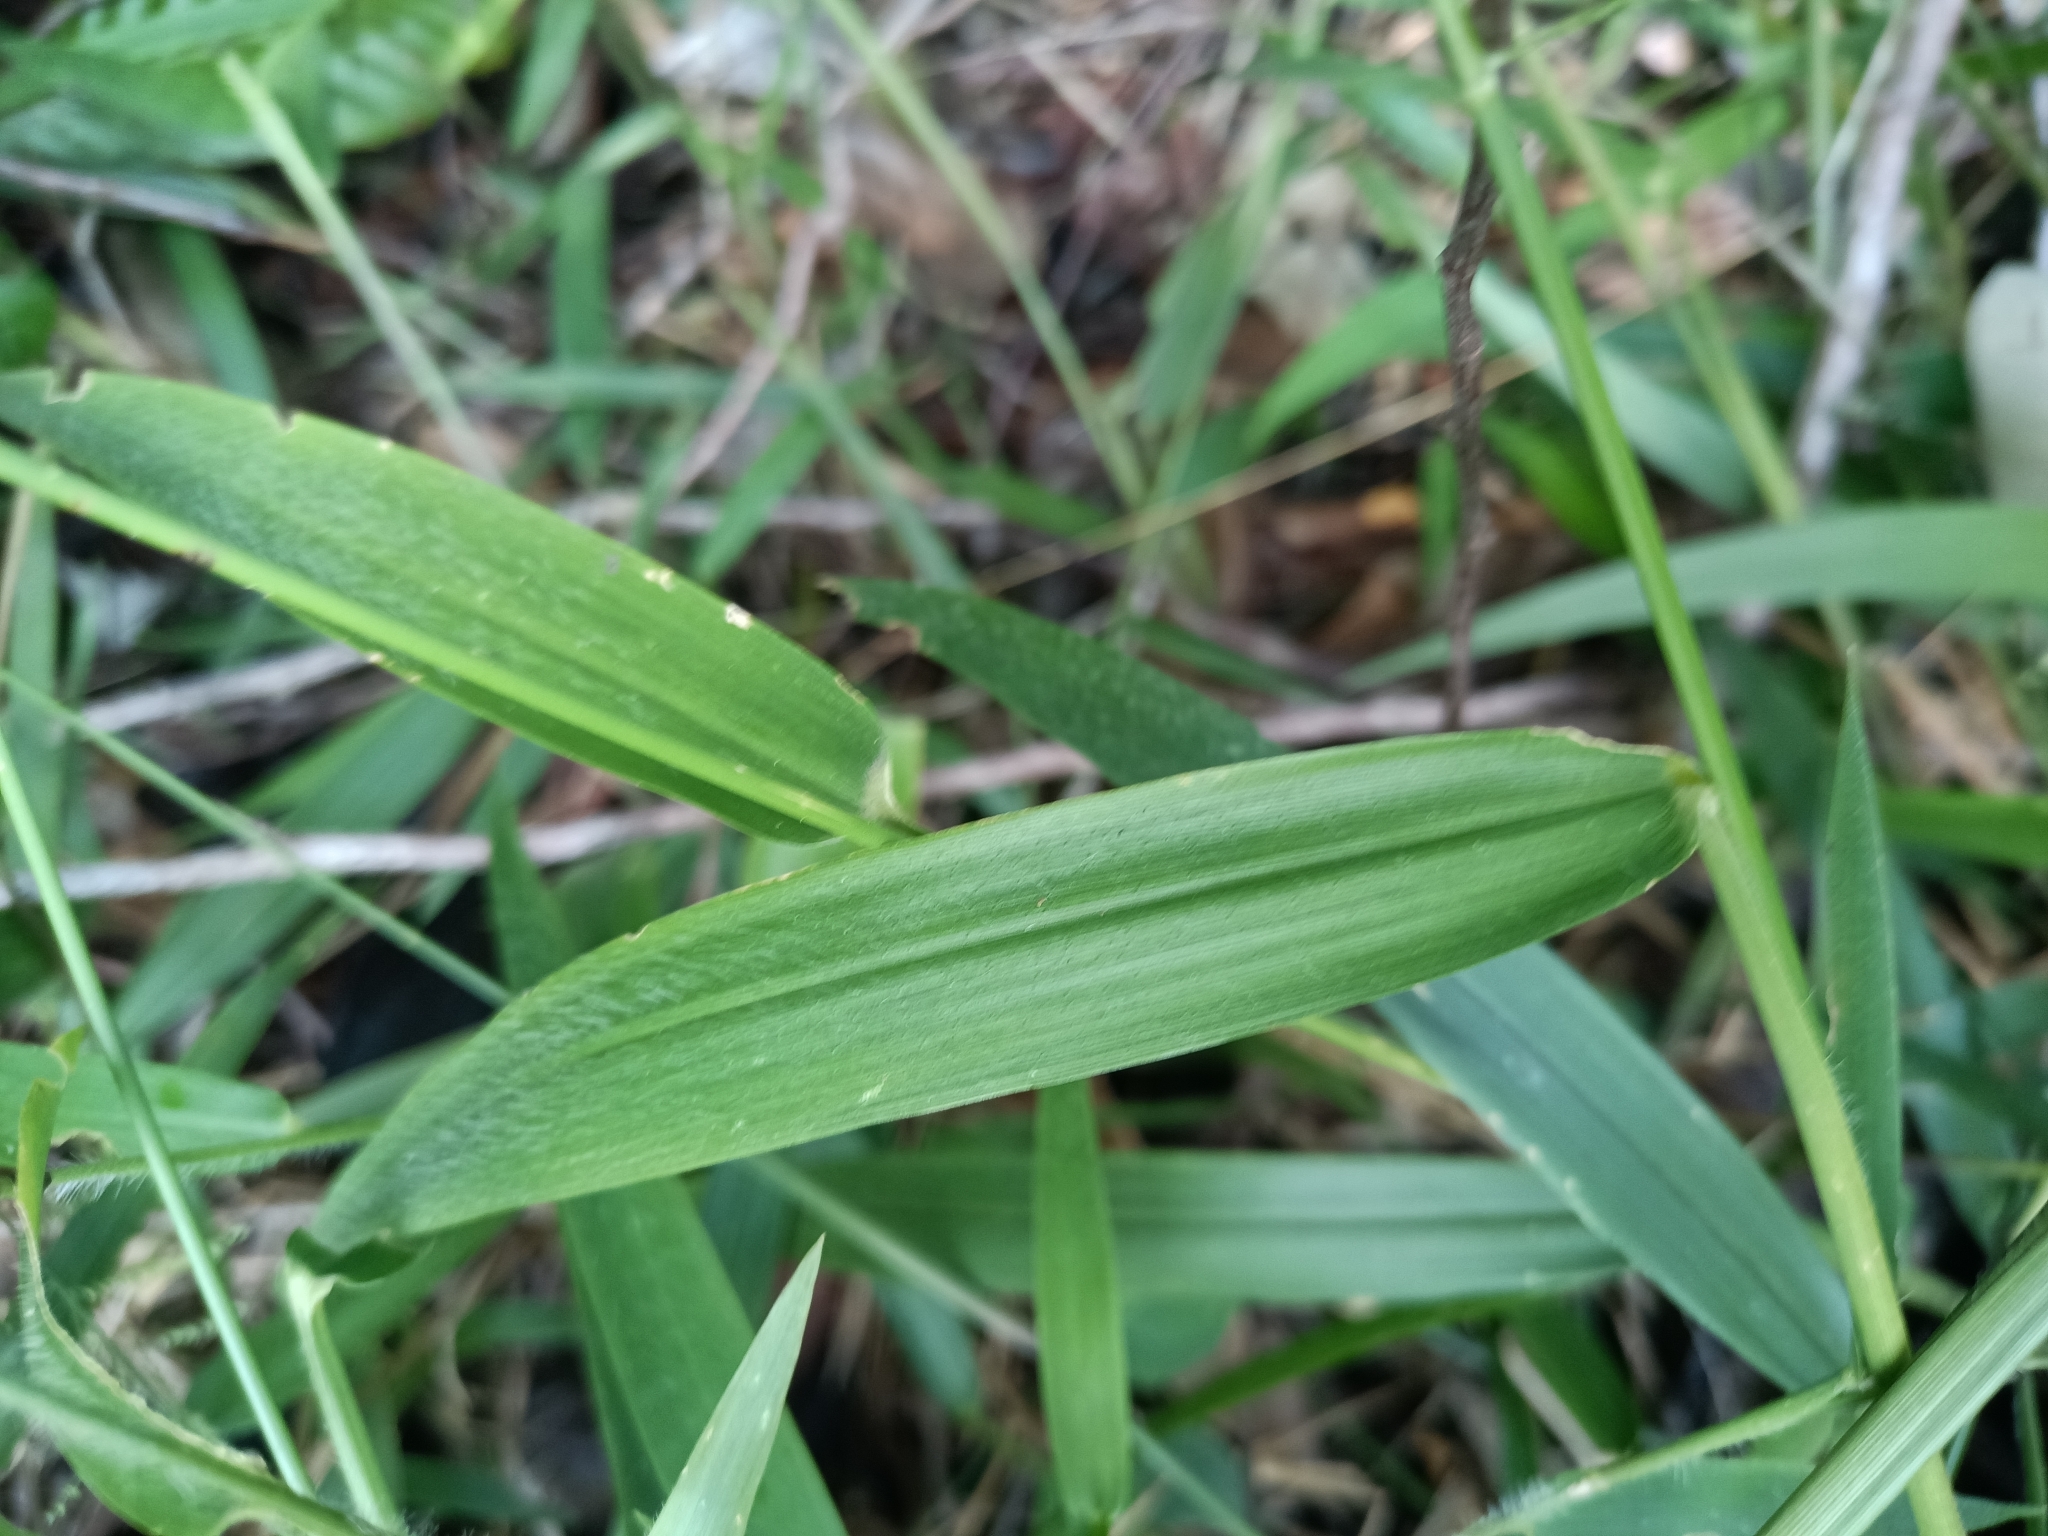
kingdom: Plantae
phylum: Tracheophyta
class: Liliopsida
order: Poales
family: Poaceae
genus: Rugoloa
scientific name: Rugoloa pilosa
